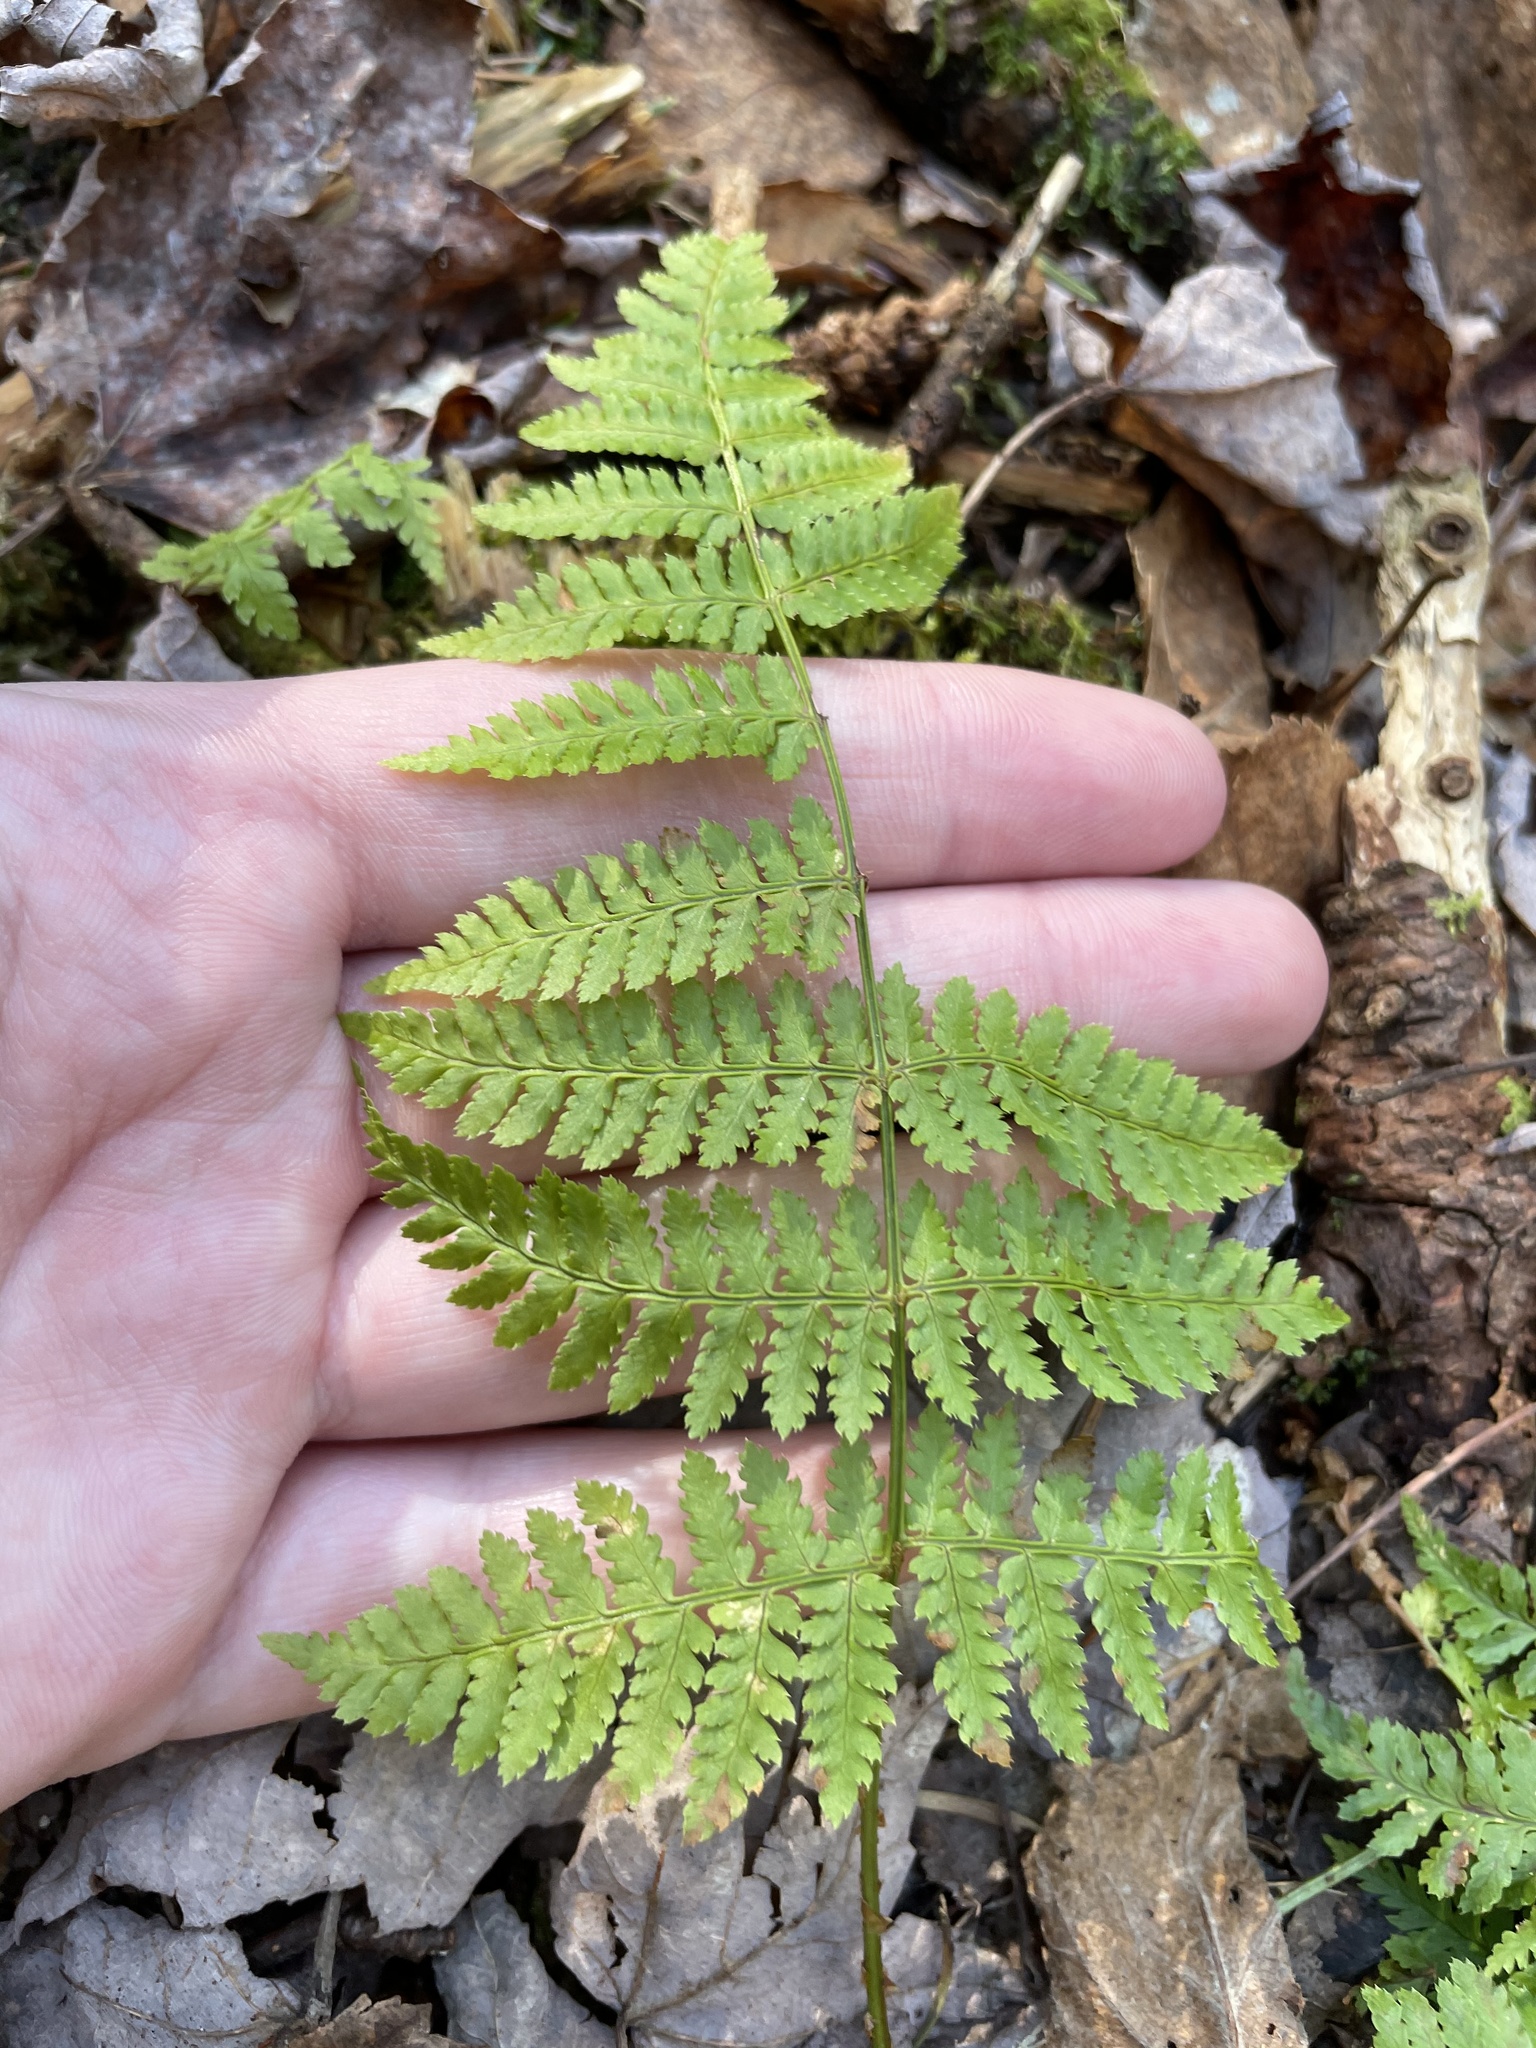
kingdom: Plantae
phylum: Tracheophyta
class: Polypodiopsida
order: Polypodiales
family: Dryopteridaceae
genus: Dryopteris
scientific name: Dryopteris intermedia
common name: Evergreen wood fern
